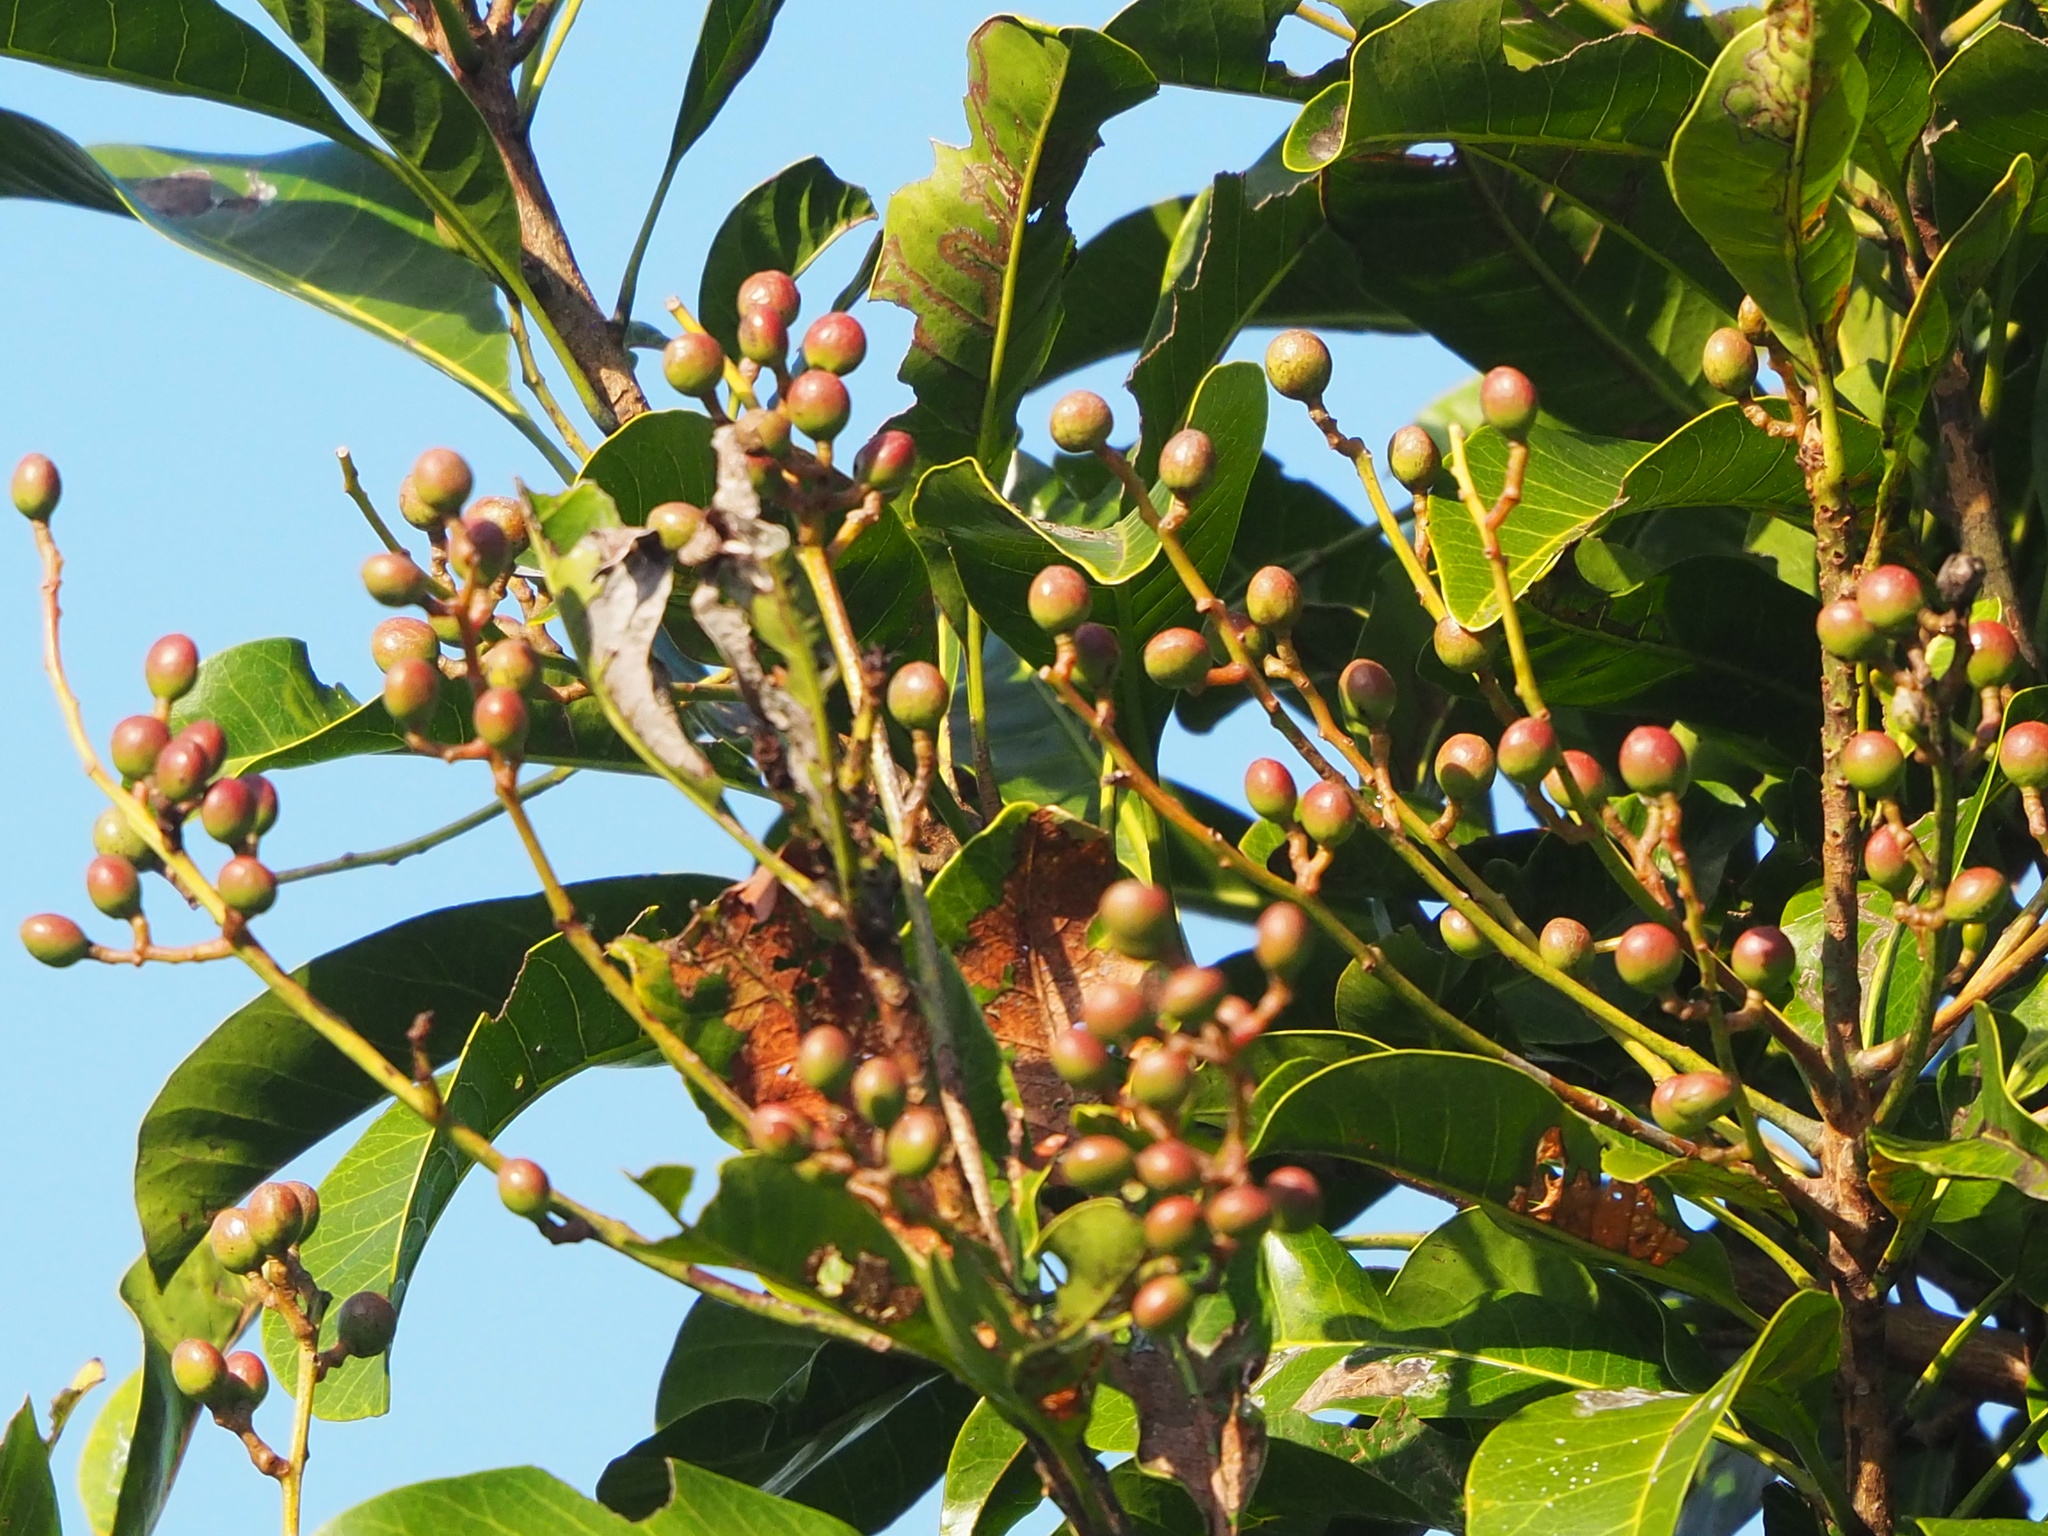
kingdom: Plantae
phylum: Tracheophyta
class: Magnoliopsida
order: Sapindales
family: Anacardiaceae
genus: Buchanania
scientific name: Buchanania arborescens
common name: Sparrow’s mango
